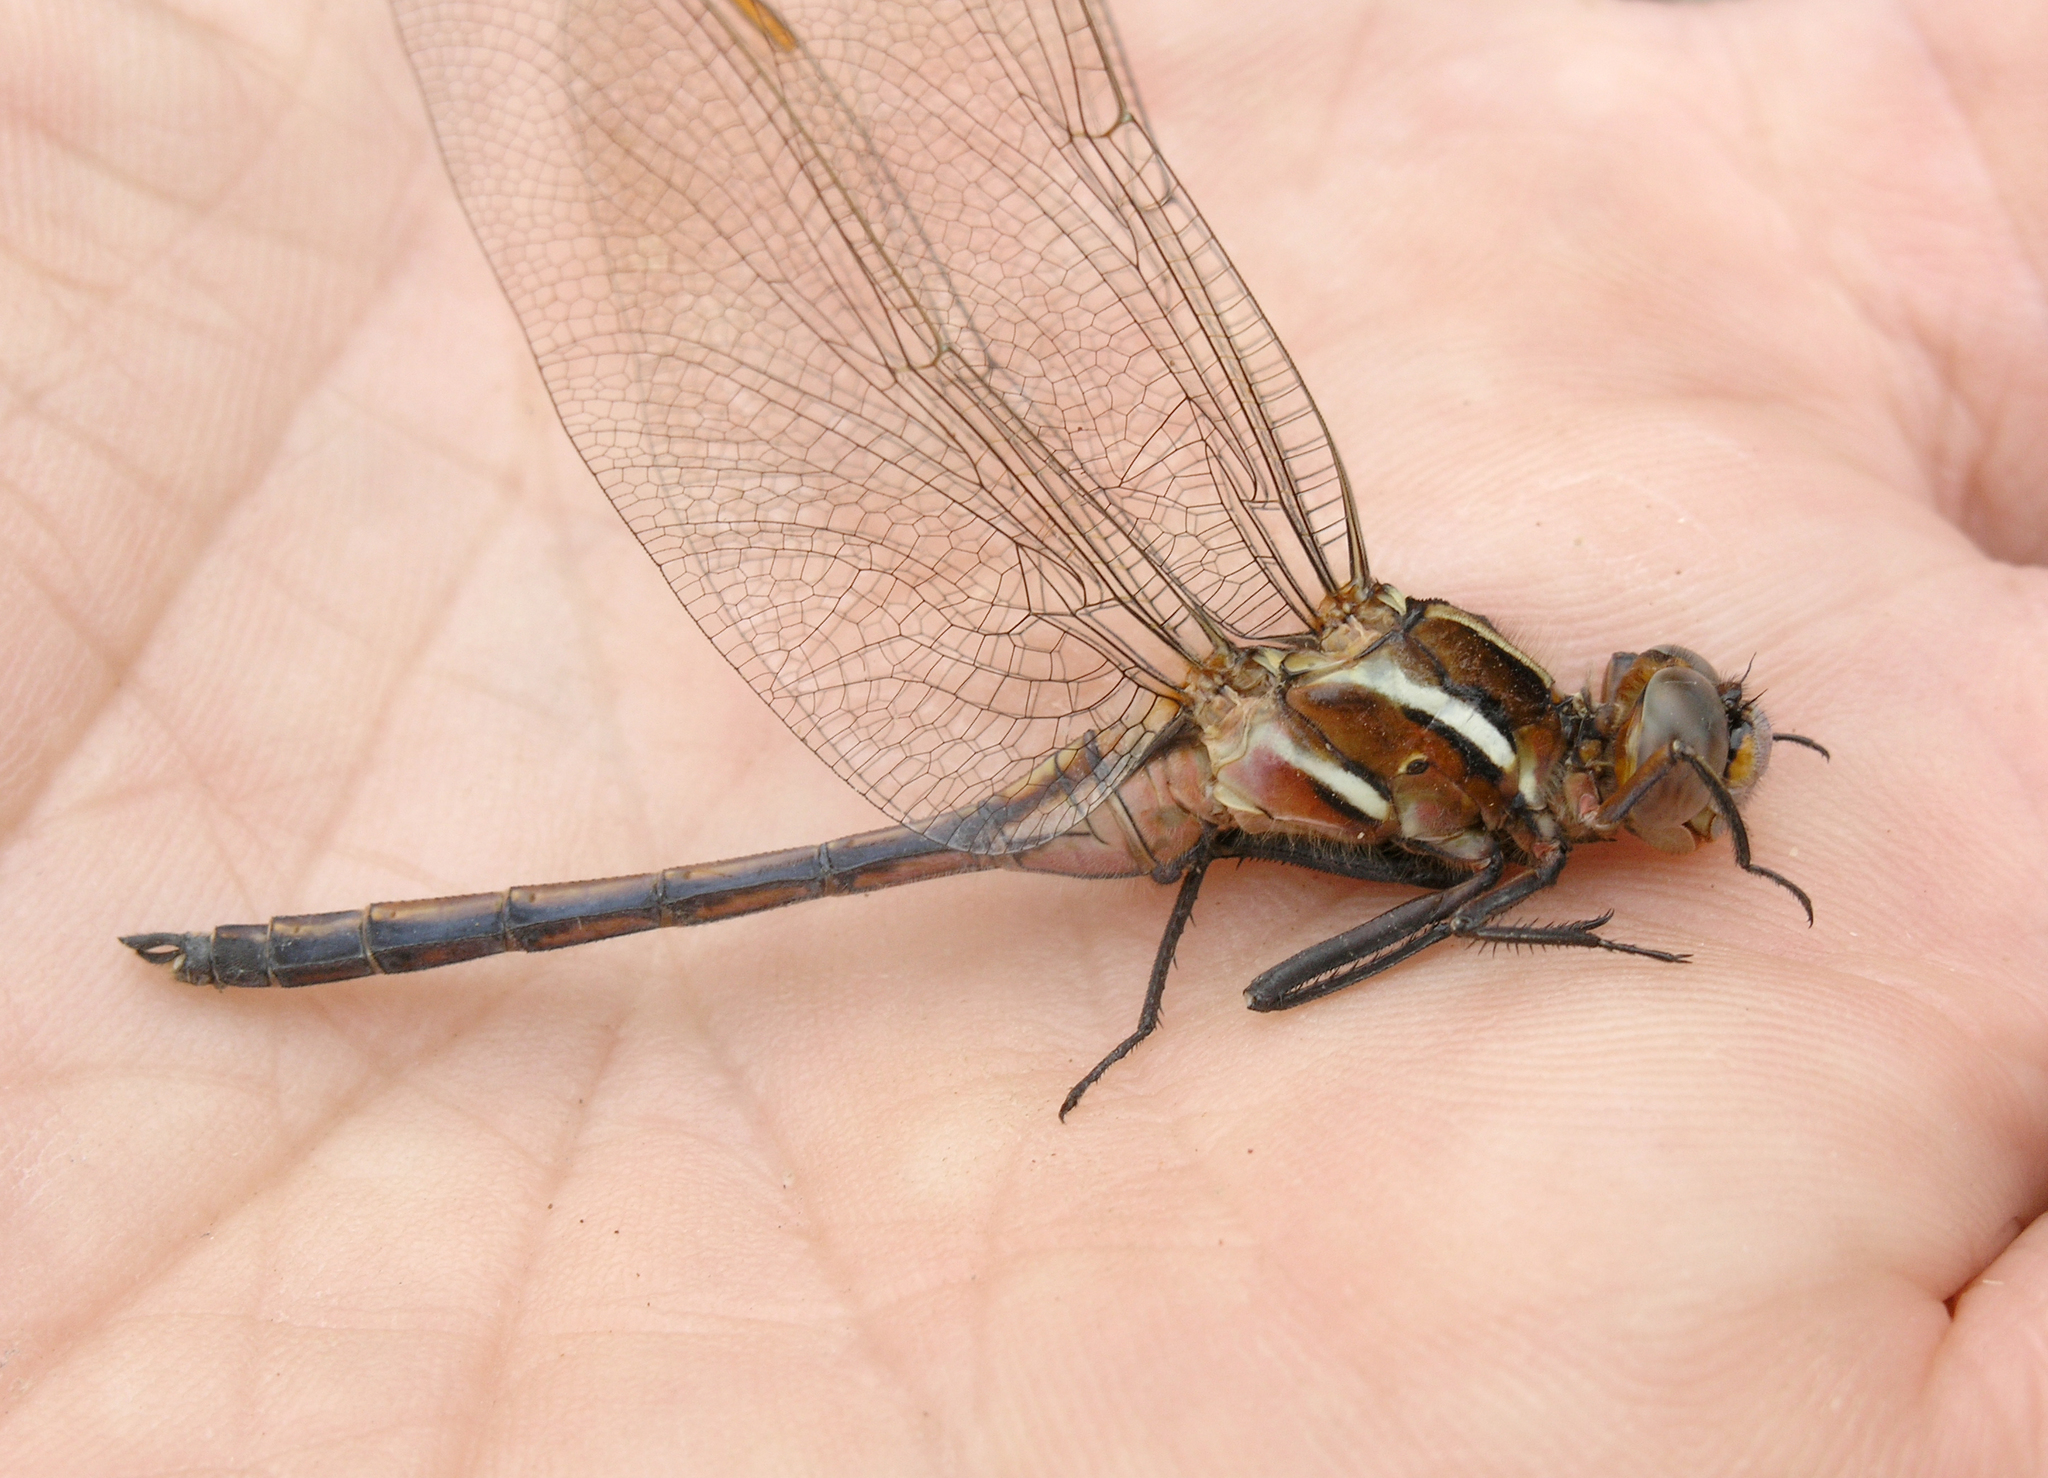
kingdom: Animalia
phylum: Arthropoda
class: Insecta
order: Odonata
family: Libellulidae
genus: Orthetrum
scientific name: Orthetrum caffrum
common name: Two-striped skimmer
